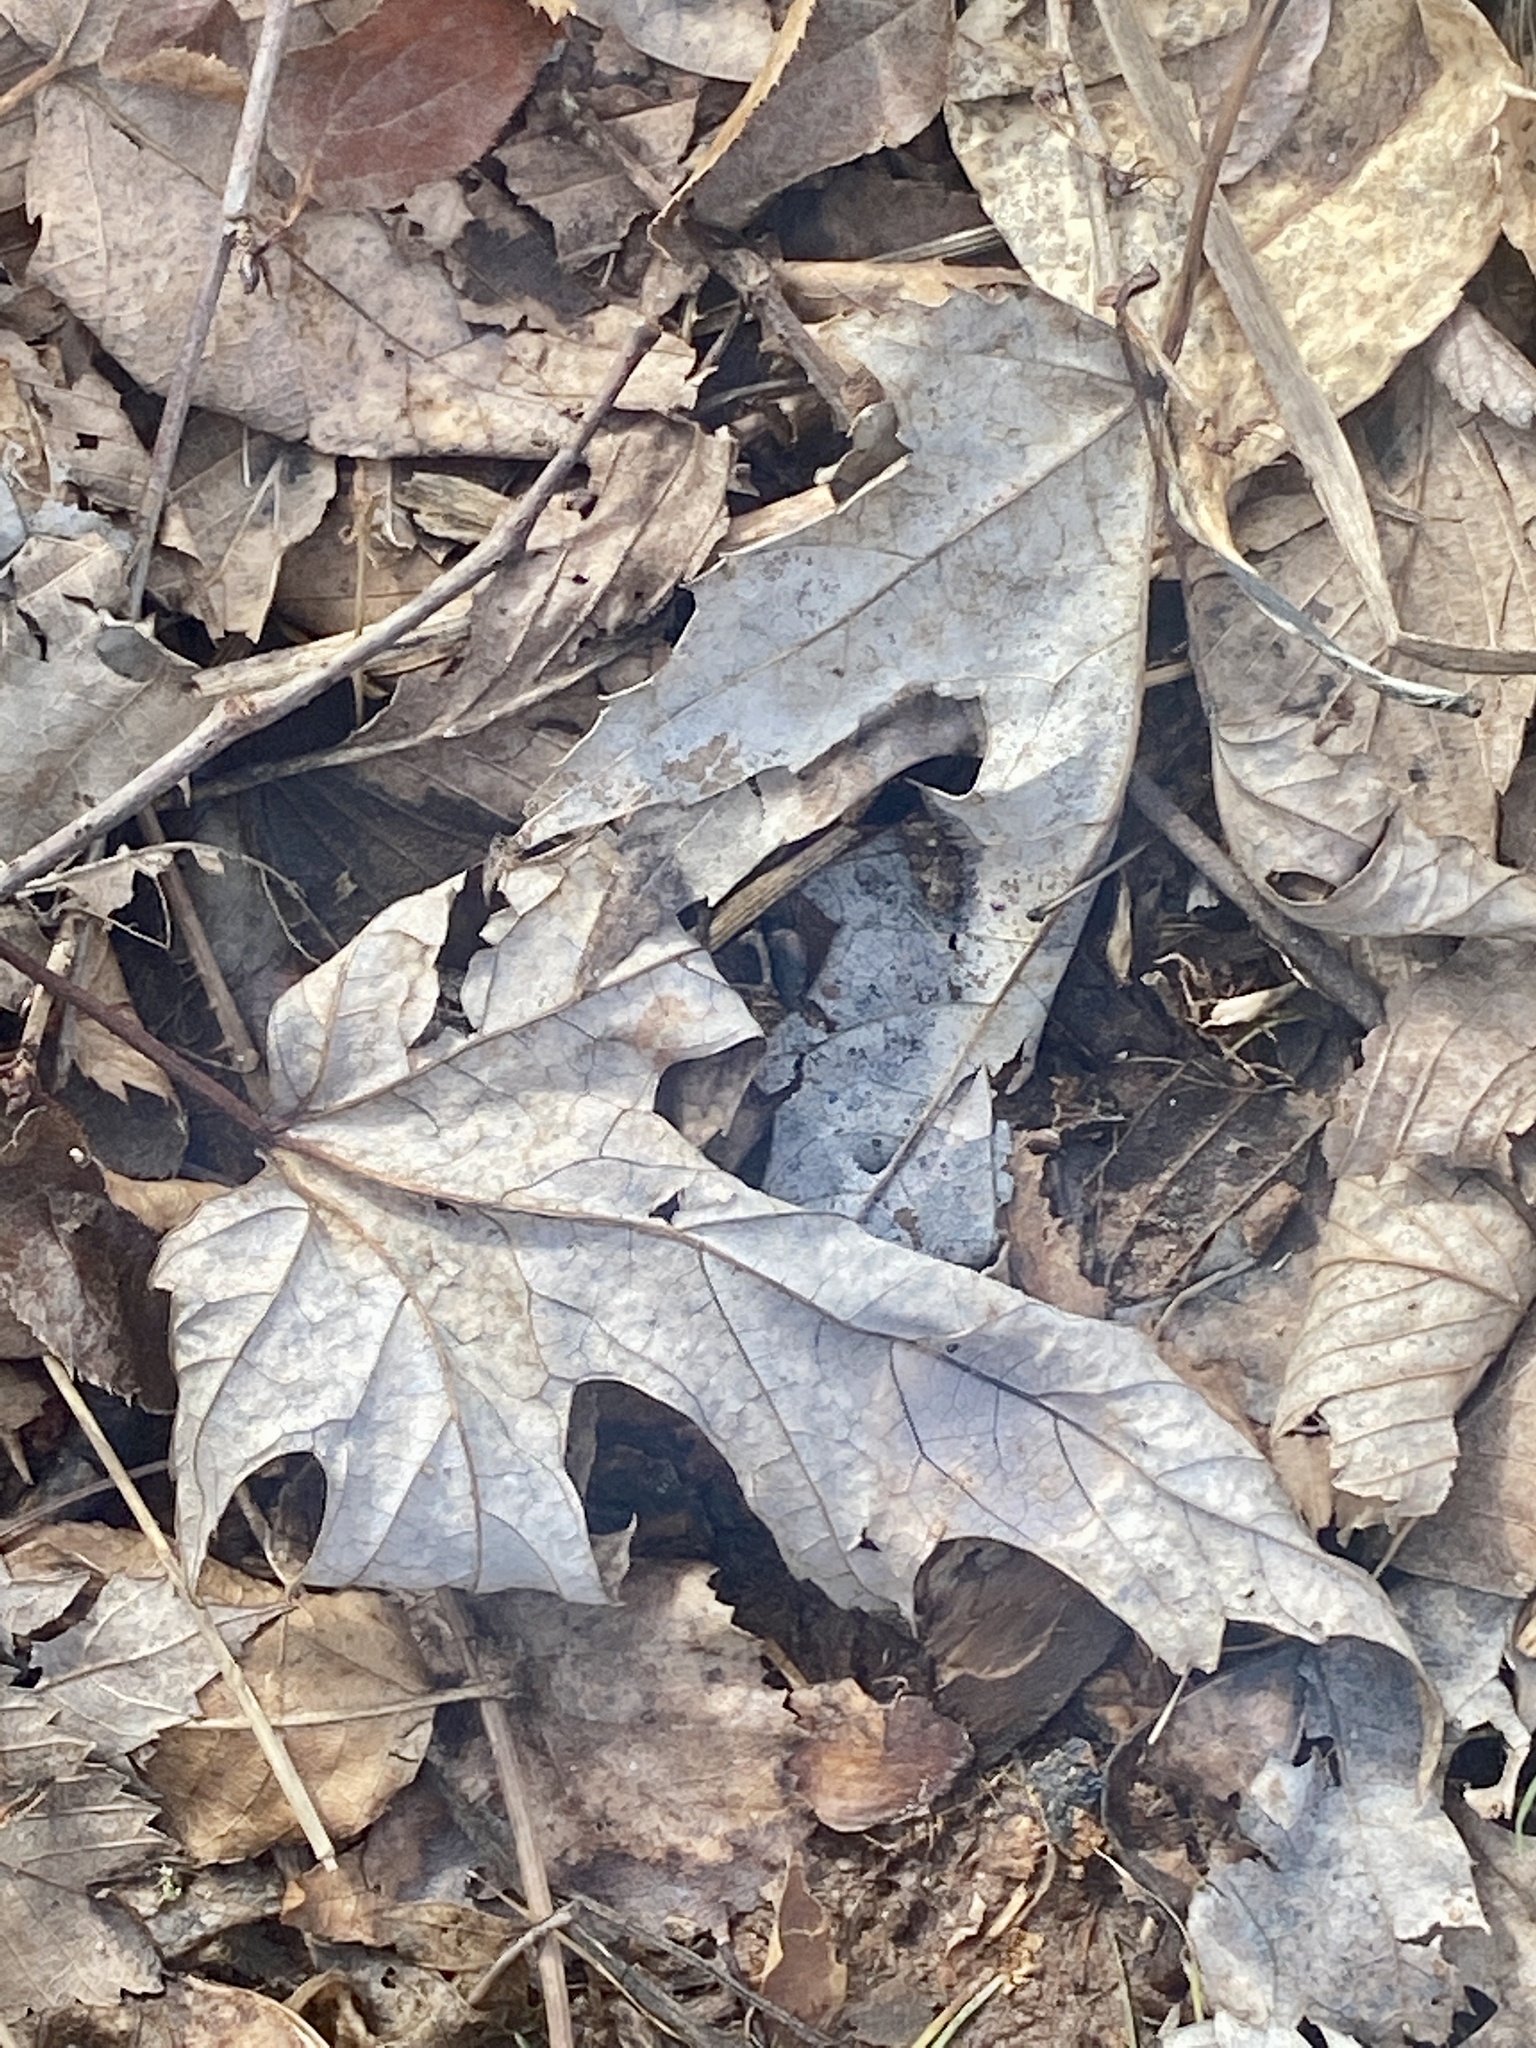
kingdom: Plantae
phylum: Tracheophyta
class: Magnoliopsida
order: Sapindales
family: Sapindaceae
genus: Acer
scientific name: Acer saccharinum
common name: Silver maple
